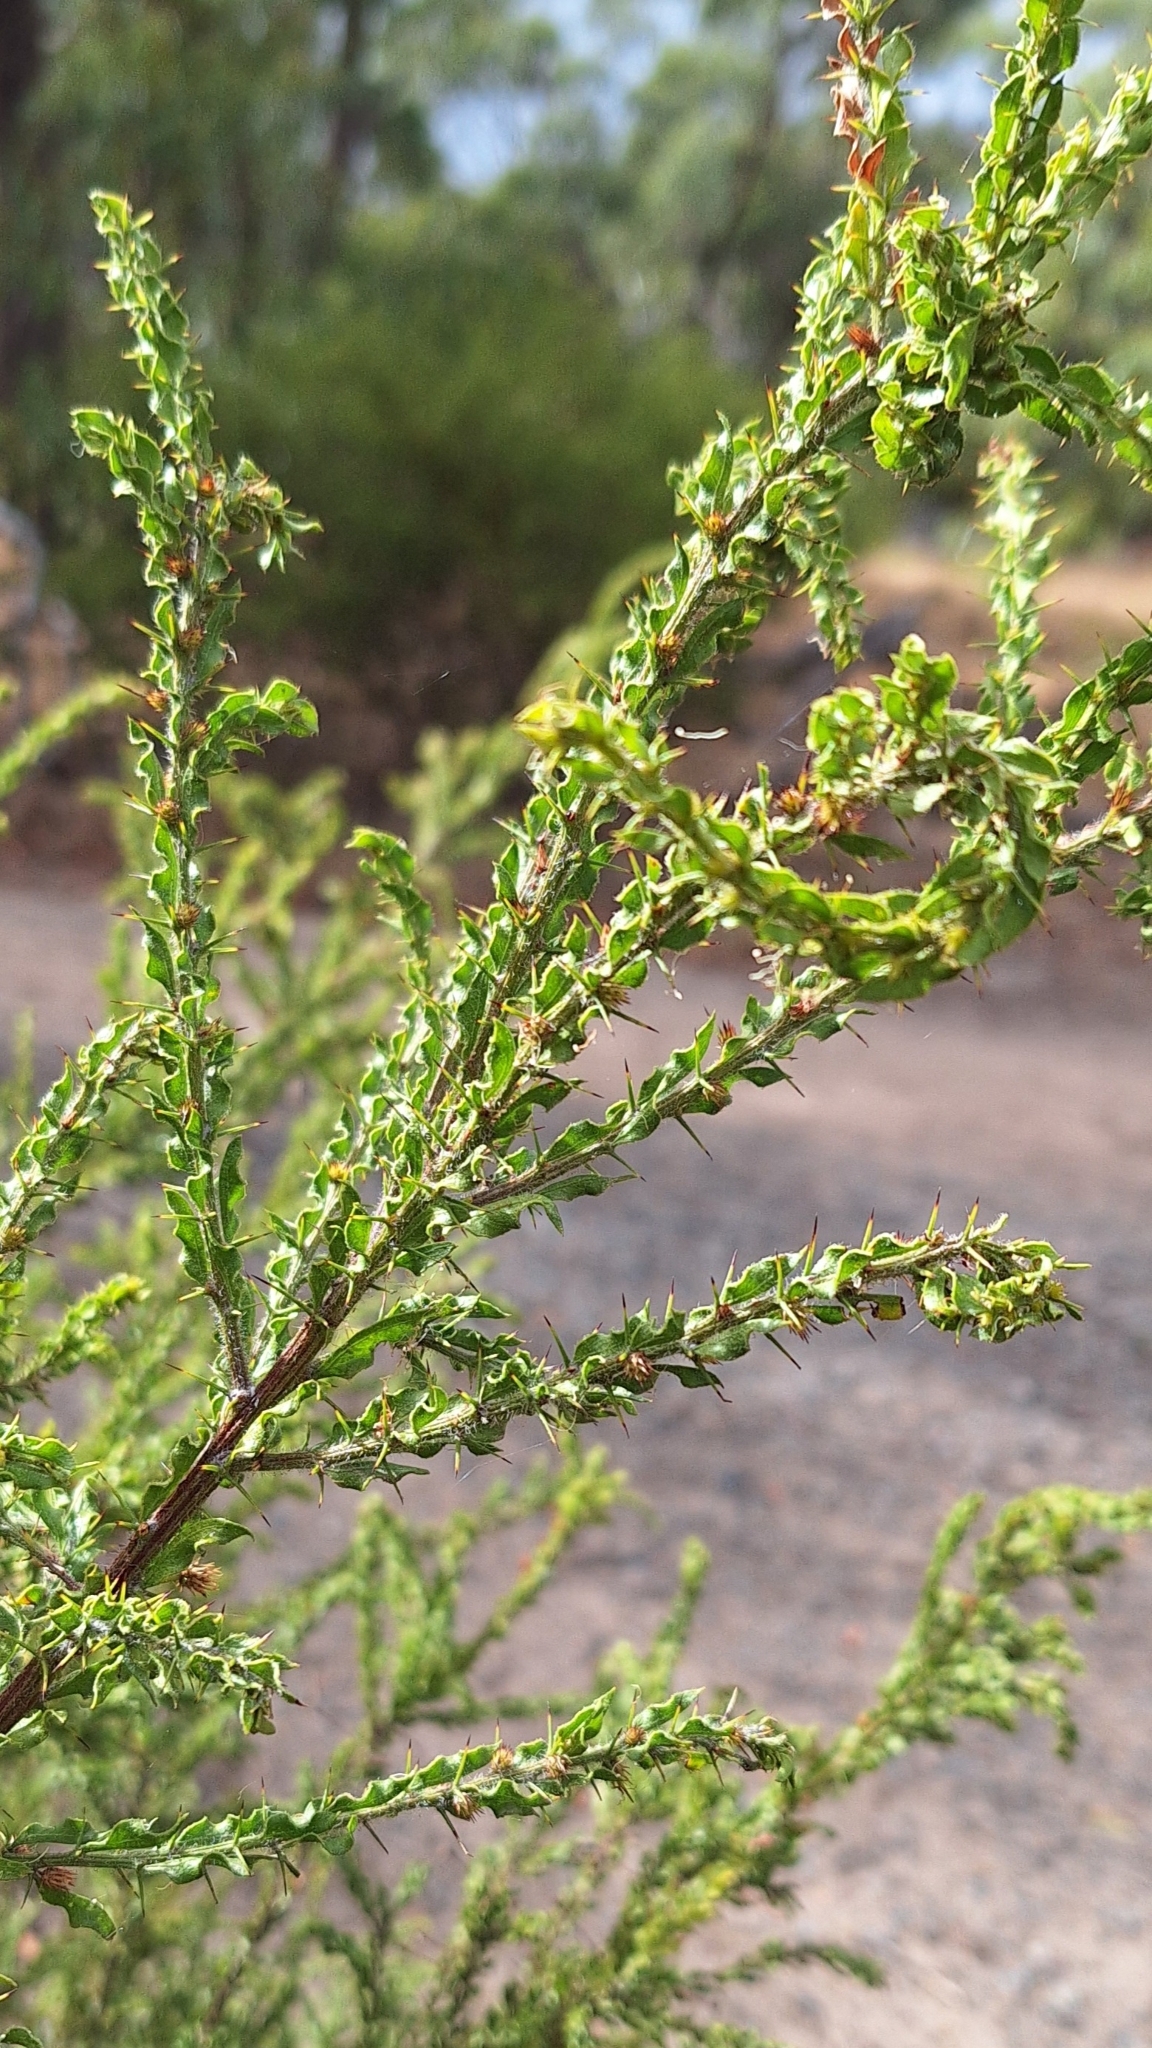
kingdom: Plantae
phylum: Tracheophyta
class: Magnoliopsida
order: Fabales
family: Fabaceae
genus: Acacia
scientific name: Acacia paradoxa
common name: Paradox acacia
